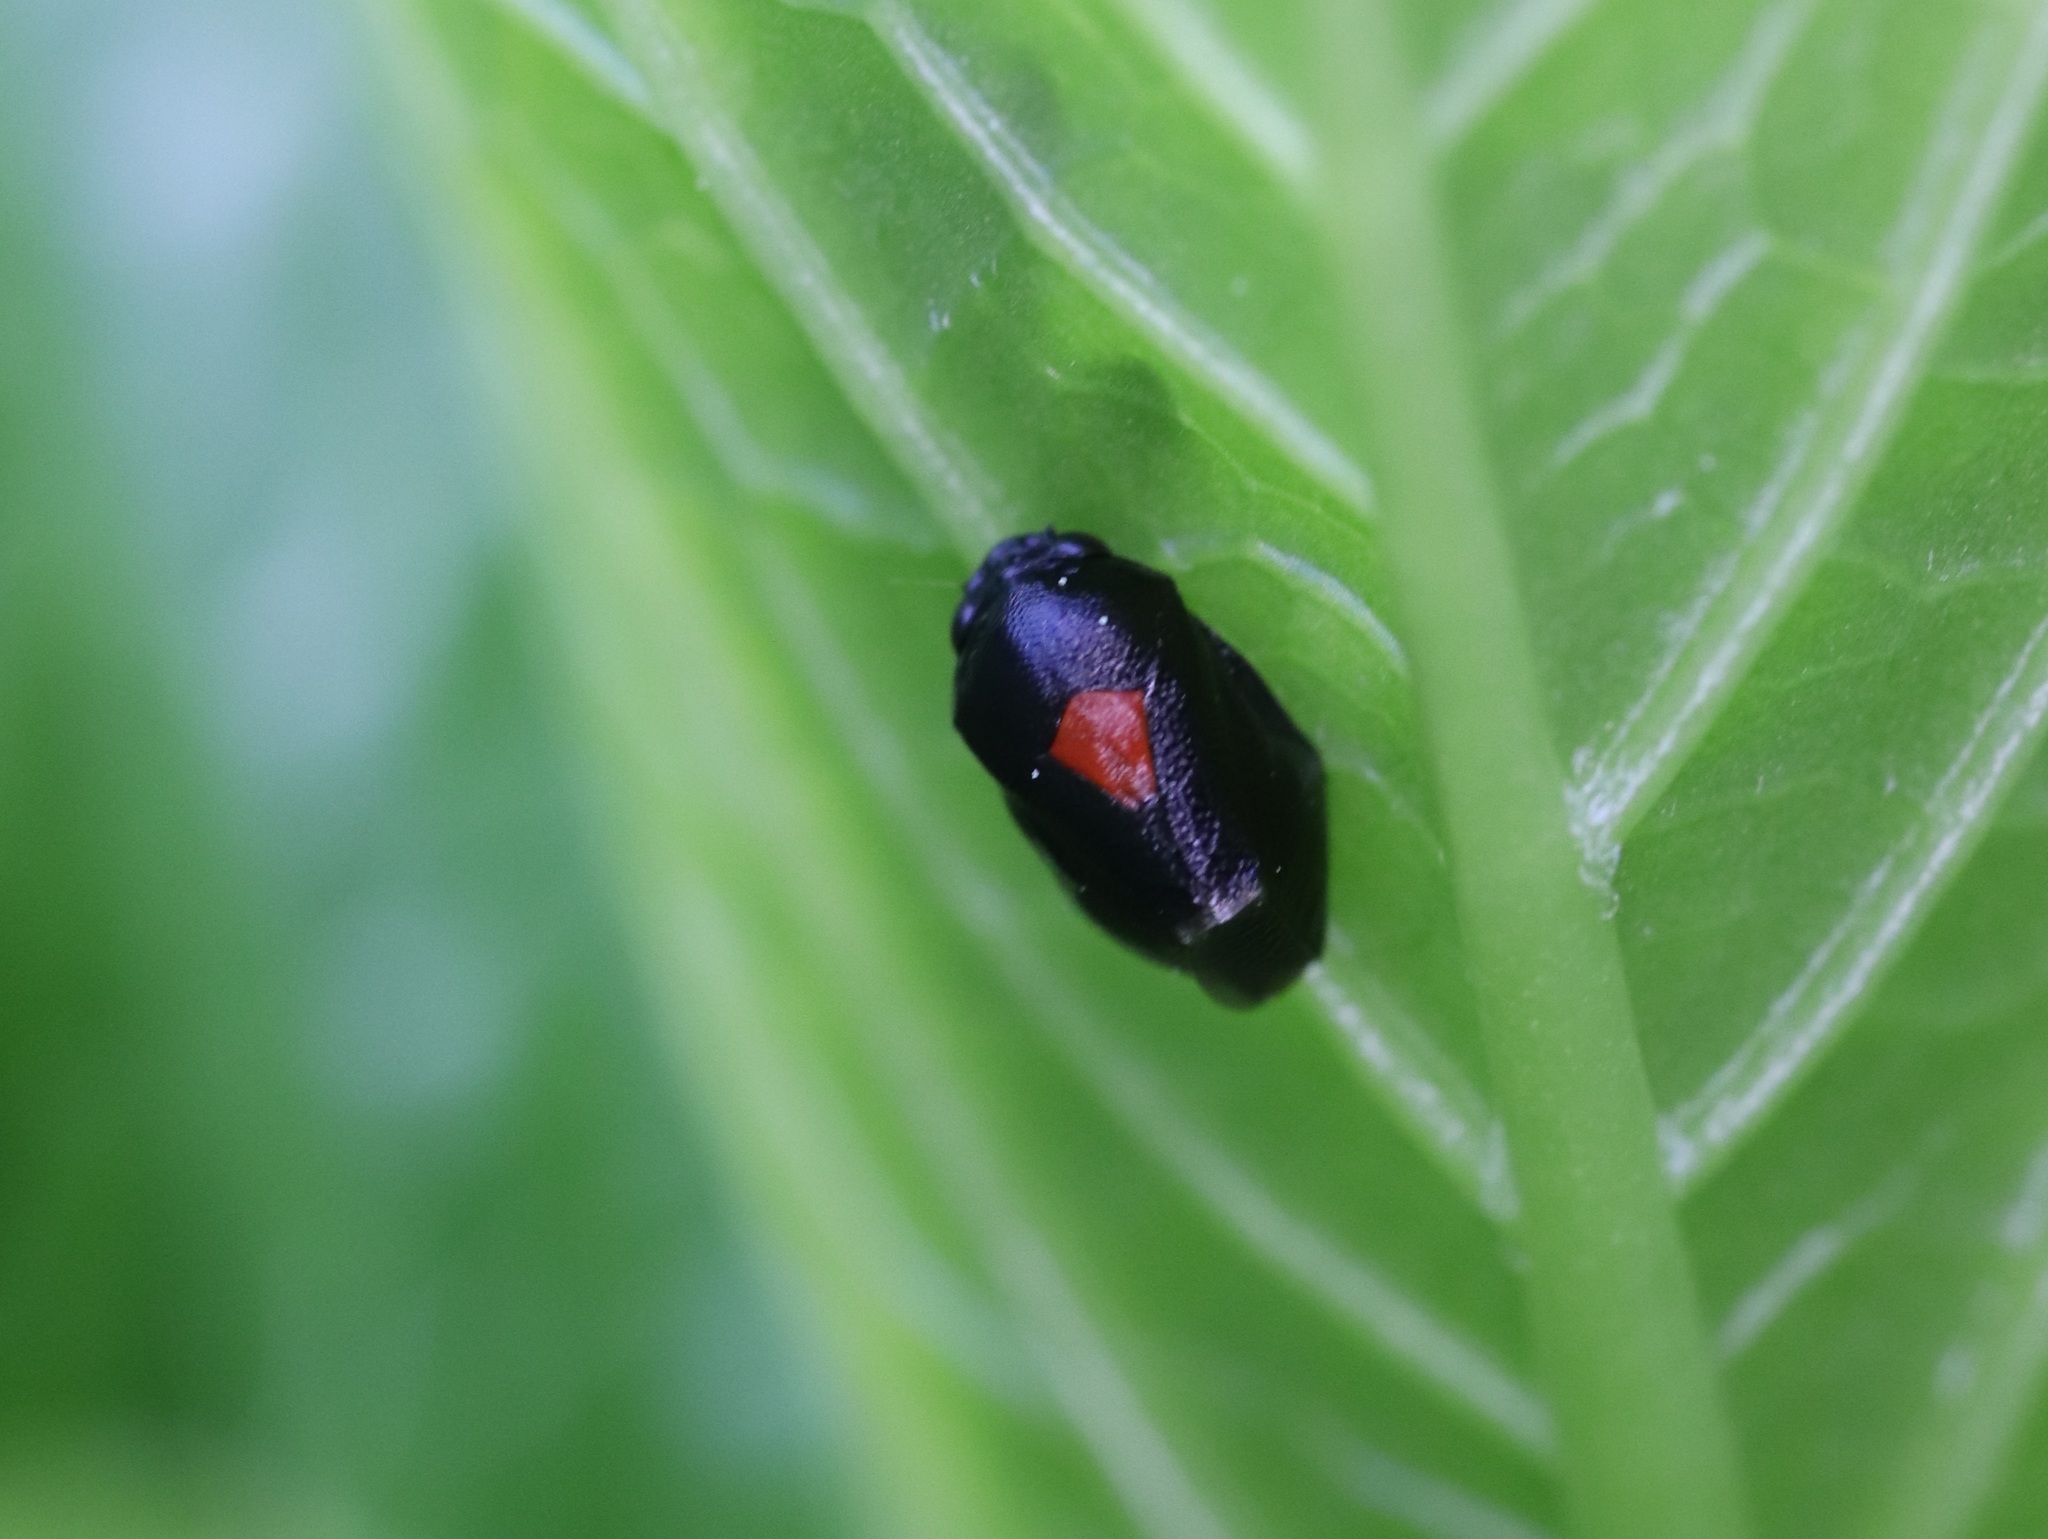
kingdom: Animalia
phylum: Arthropoda
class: Insecta
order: Hemiptera
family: Machaerotidae
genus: Hindoloides
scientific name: Hindoloides bipunctata
